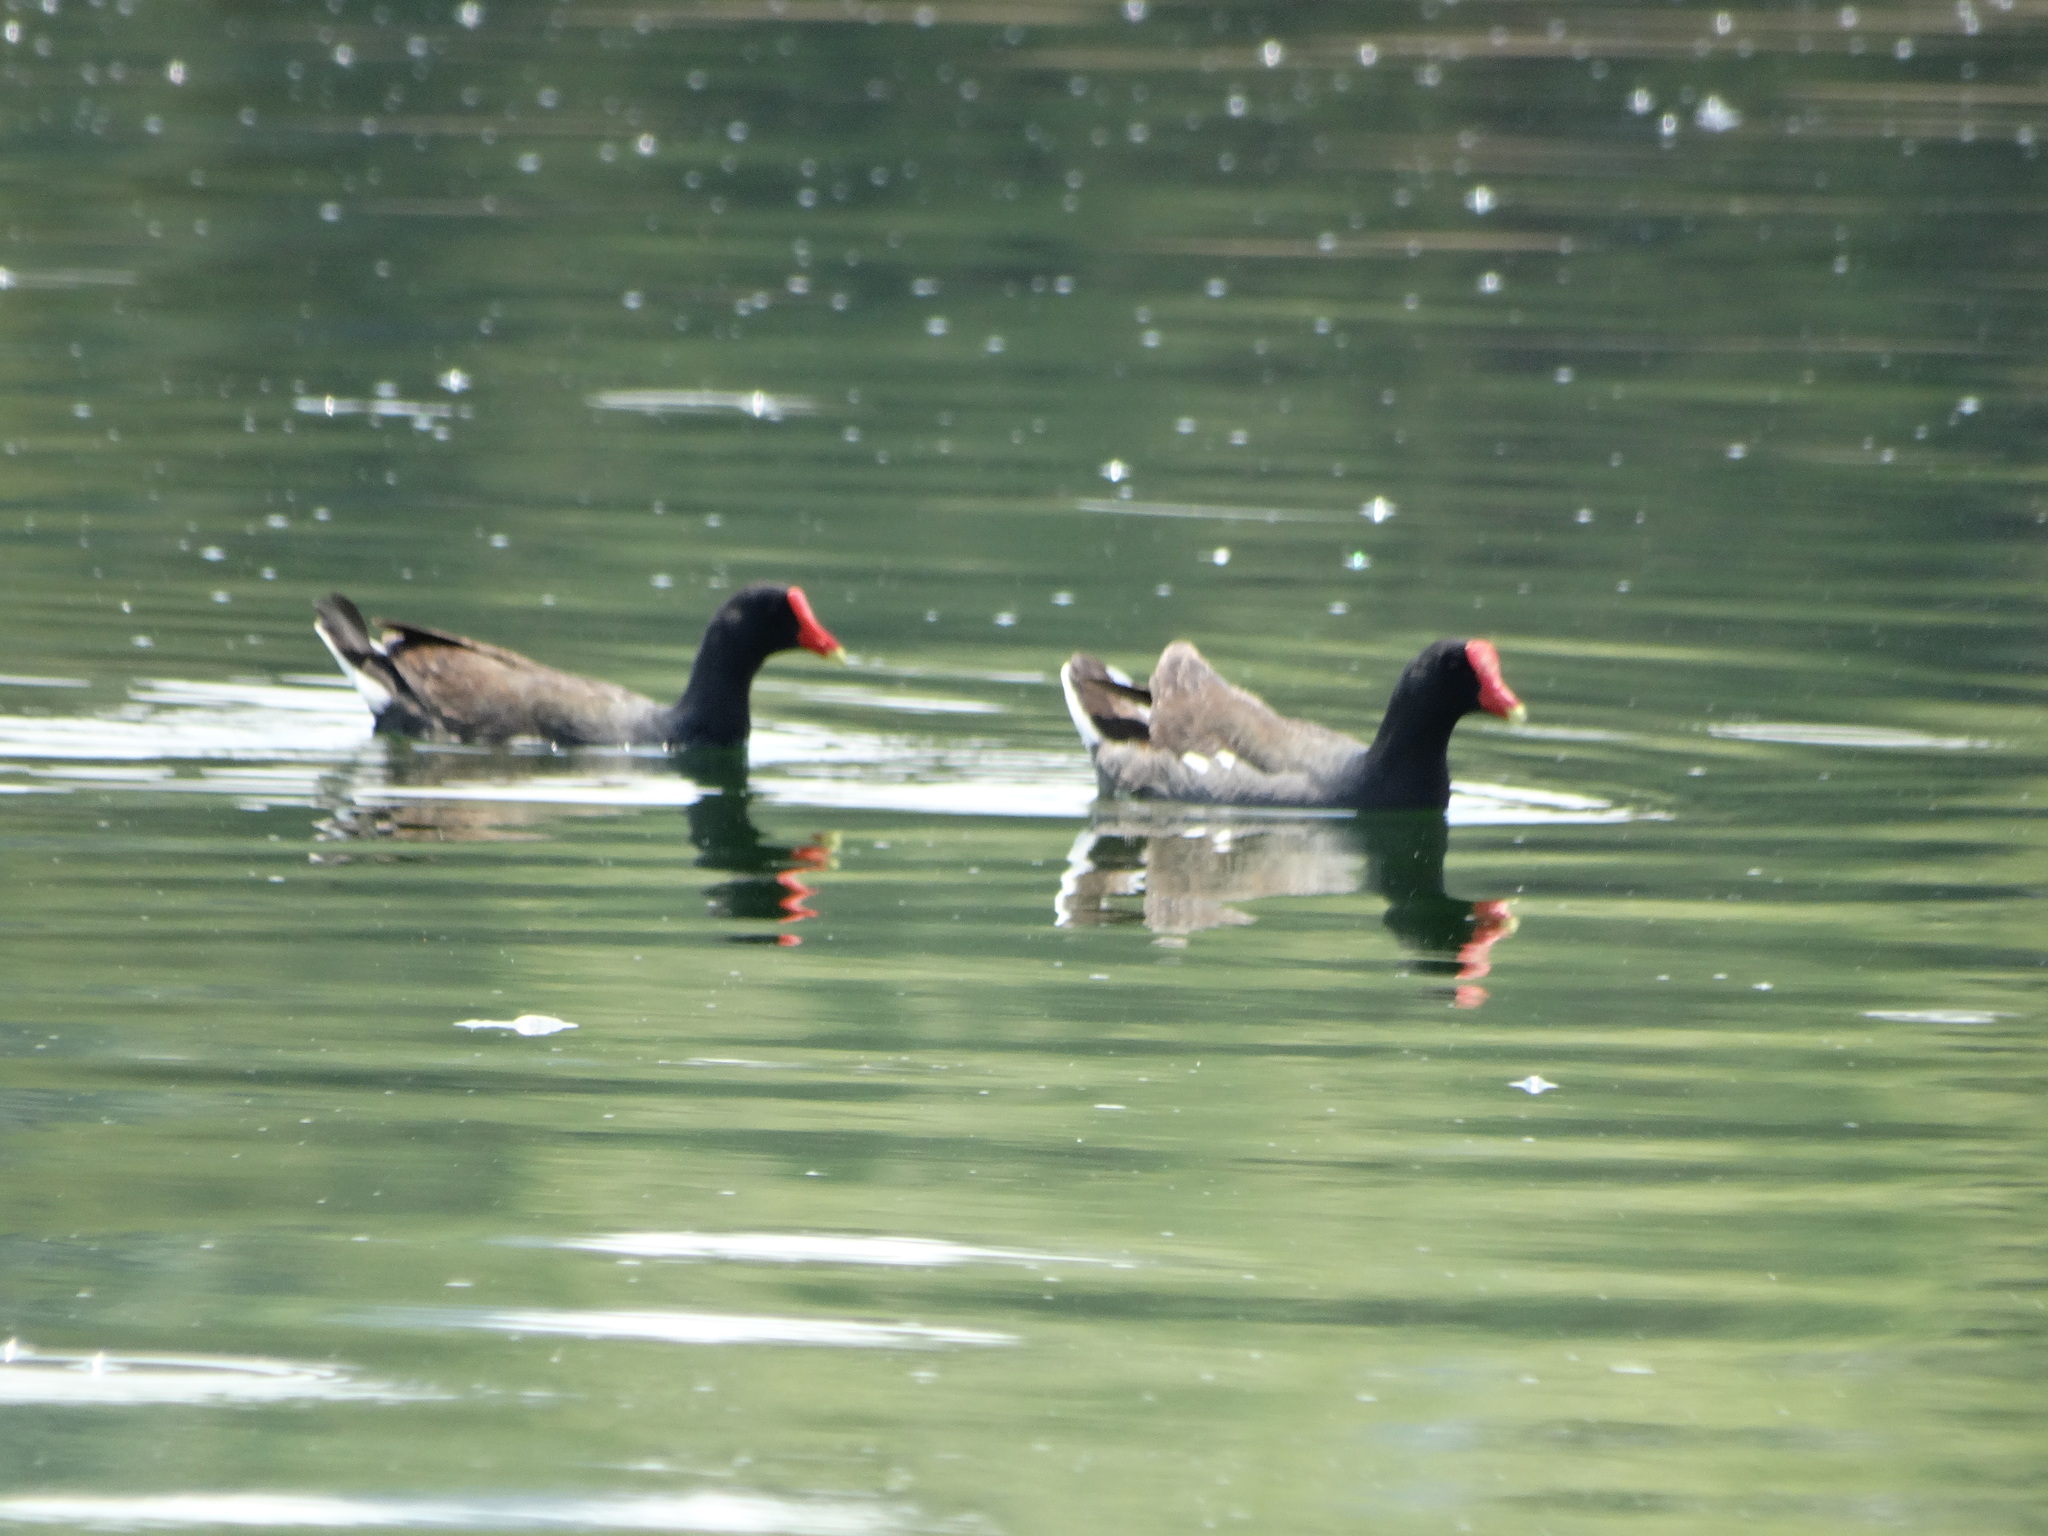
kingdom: Animalia
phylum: Chordata
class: Aves
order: Gruiformes
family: Rallidae
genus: Gallinula
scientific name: Gallinula chloropus
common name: Common moorhen
